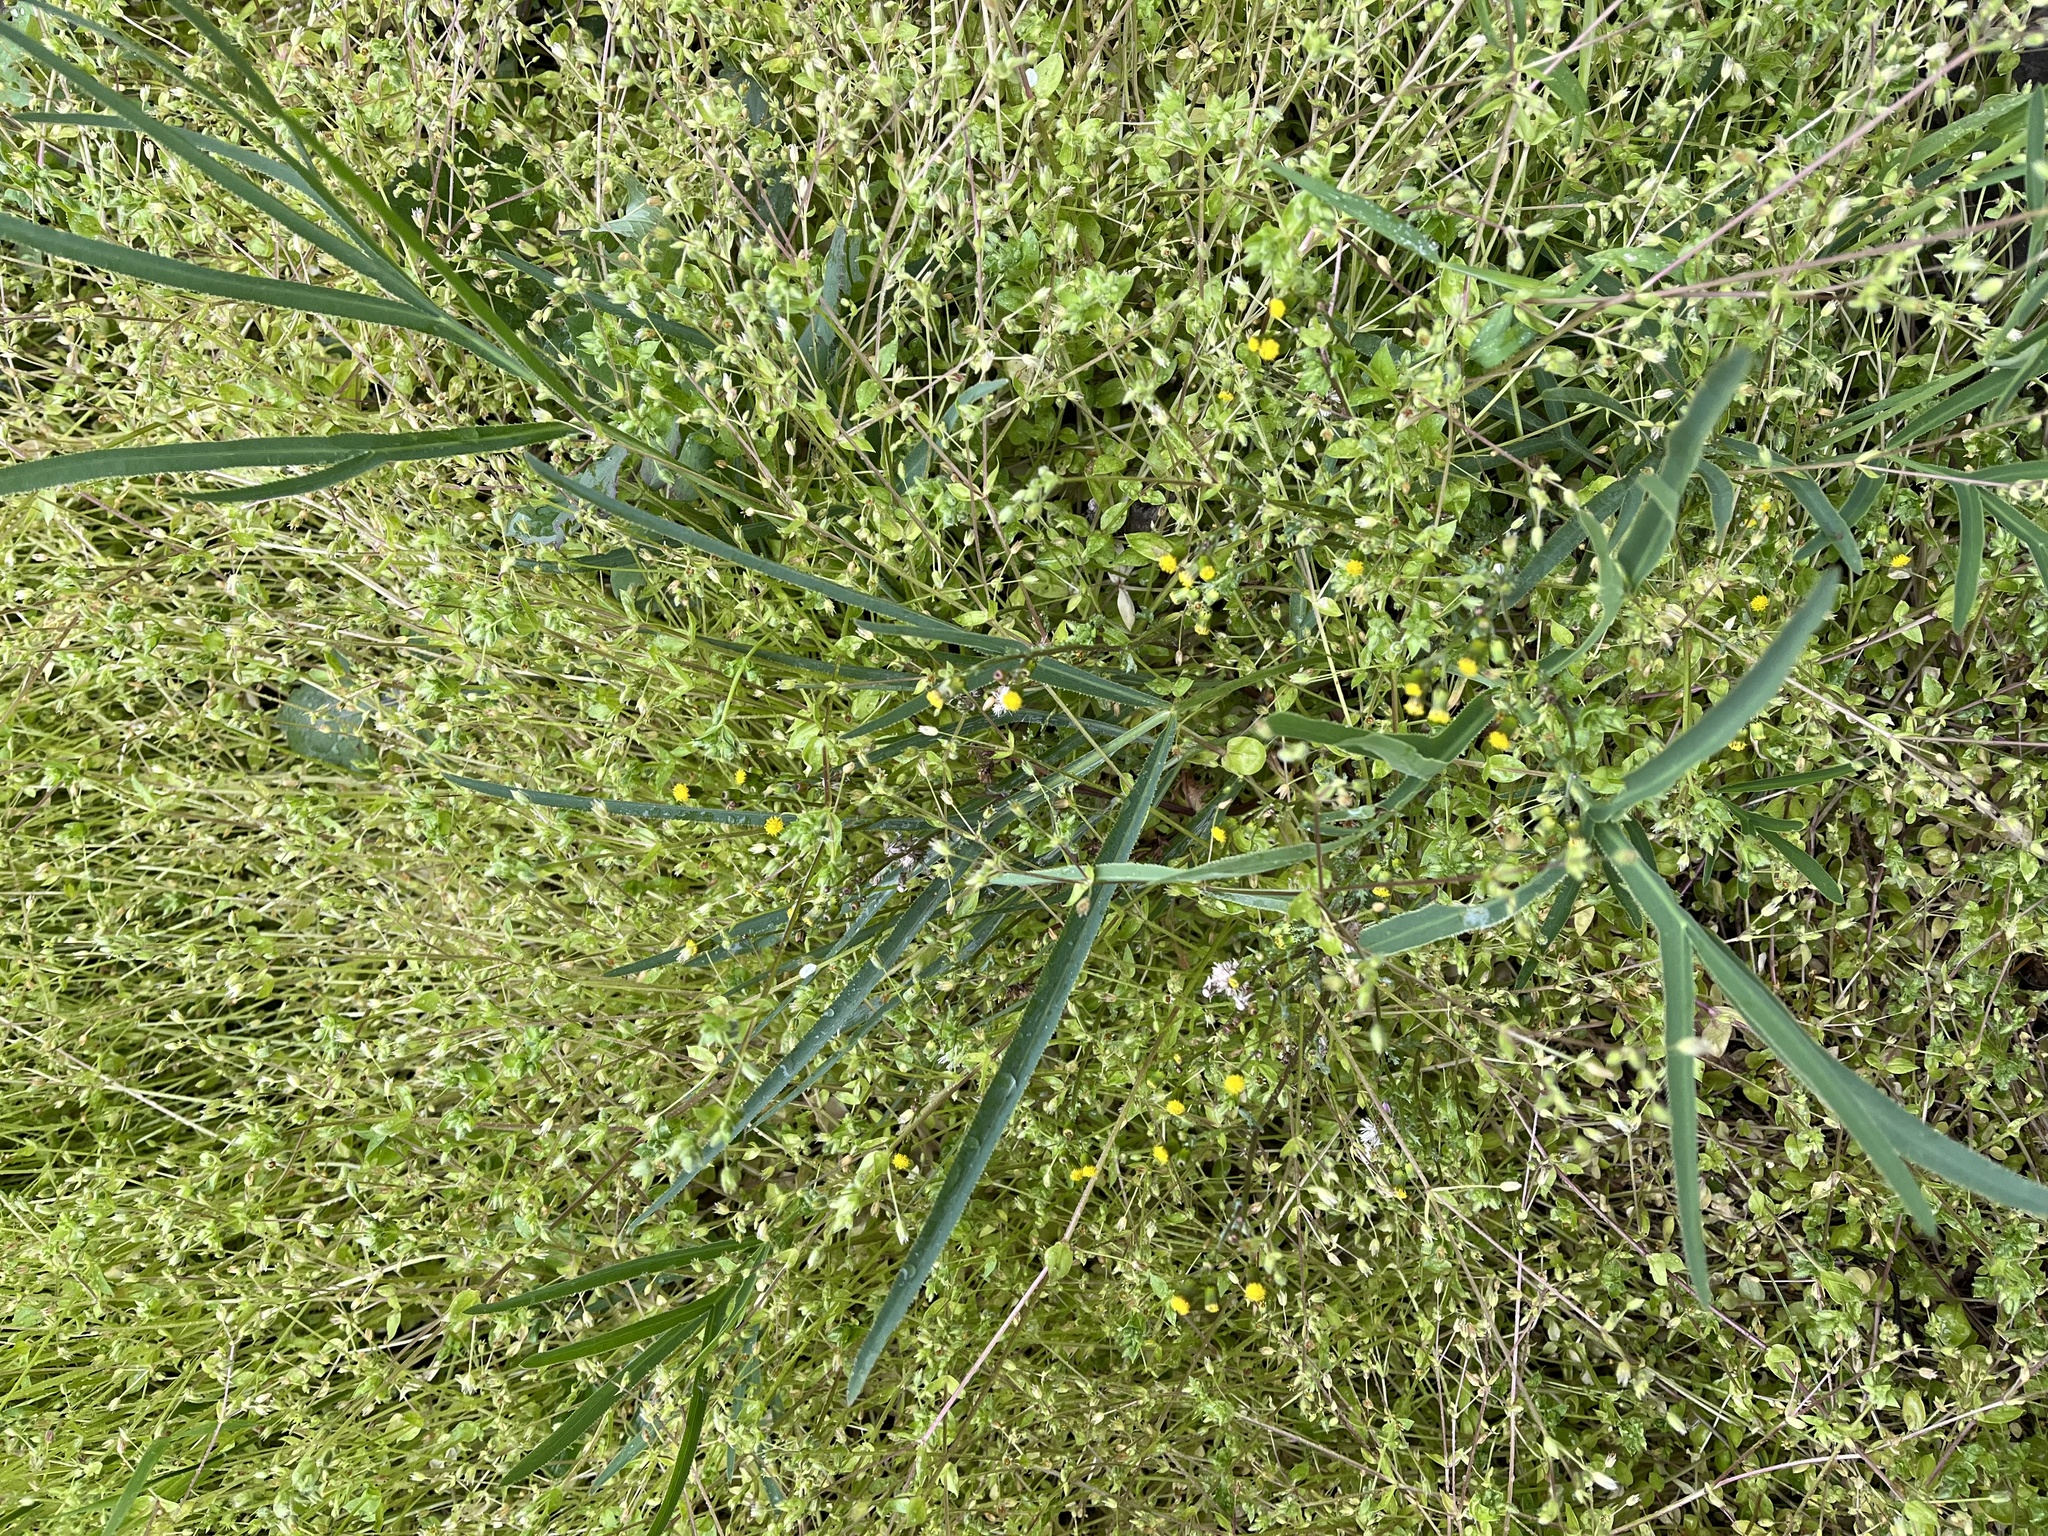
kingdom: Plantae
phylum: Tracheophyta
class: Magnoliopsida
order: Apiales
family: Apiaceae
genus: Falcaria
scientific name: Falcaria vulgaris
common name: Longleaf
